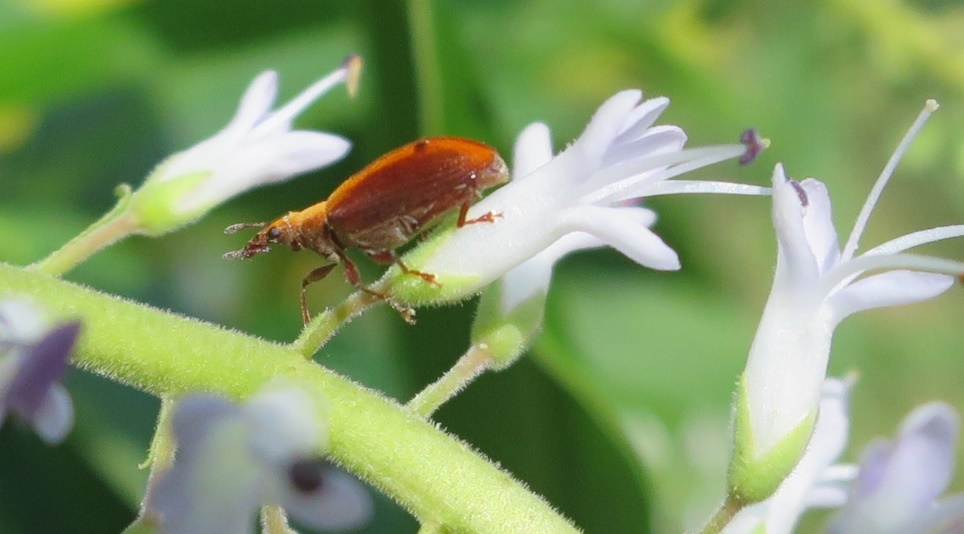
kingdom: Animalia
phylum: Arthropoda
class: Insecta
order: Coleoptera
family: Curculionidae
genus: Oreocalus
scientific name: Oreocalus
